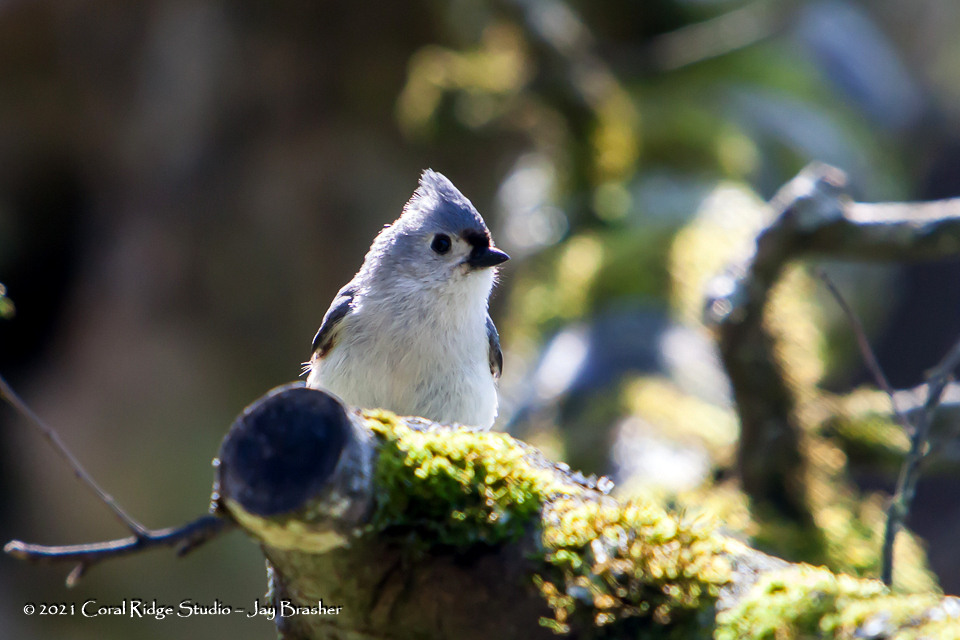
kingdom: Animalia
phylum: Chordata
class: Aves
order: Passeriformes
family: Paridae
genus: Baeolophus
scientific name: Baeolophus bicolor
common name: Tufted titmouse
